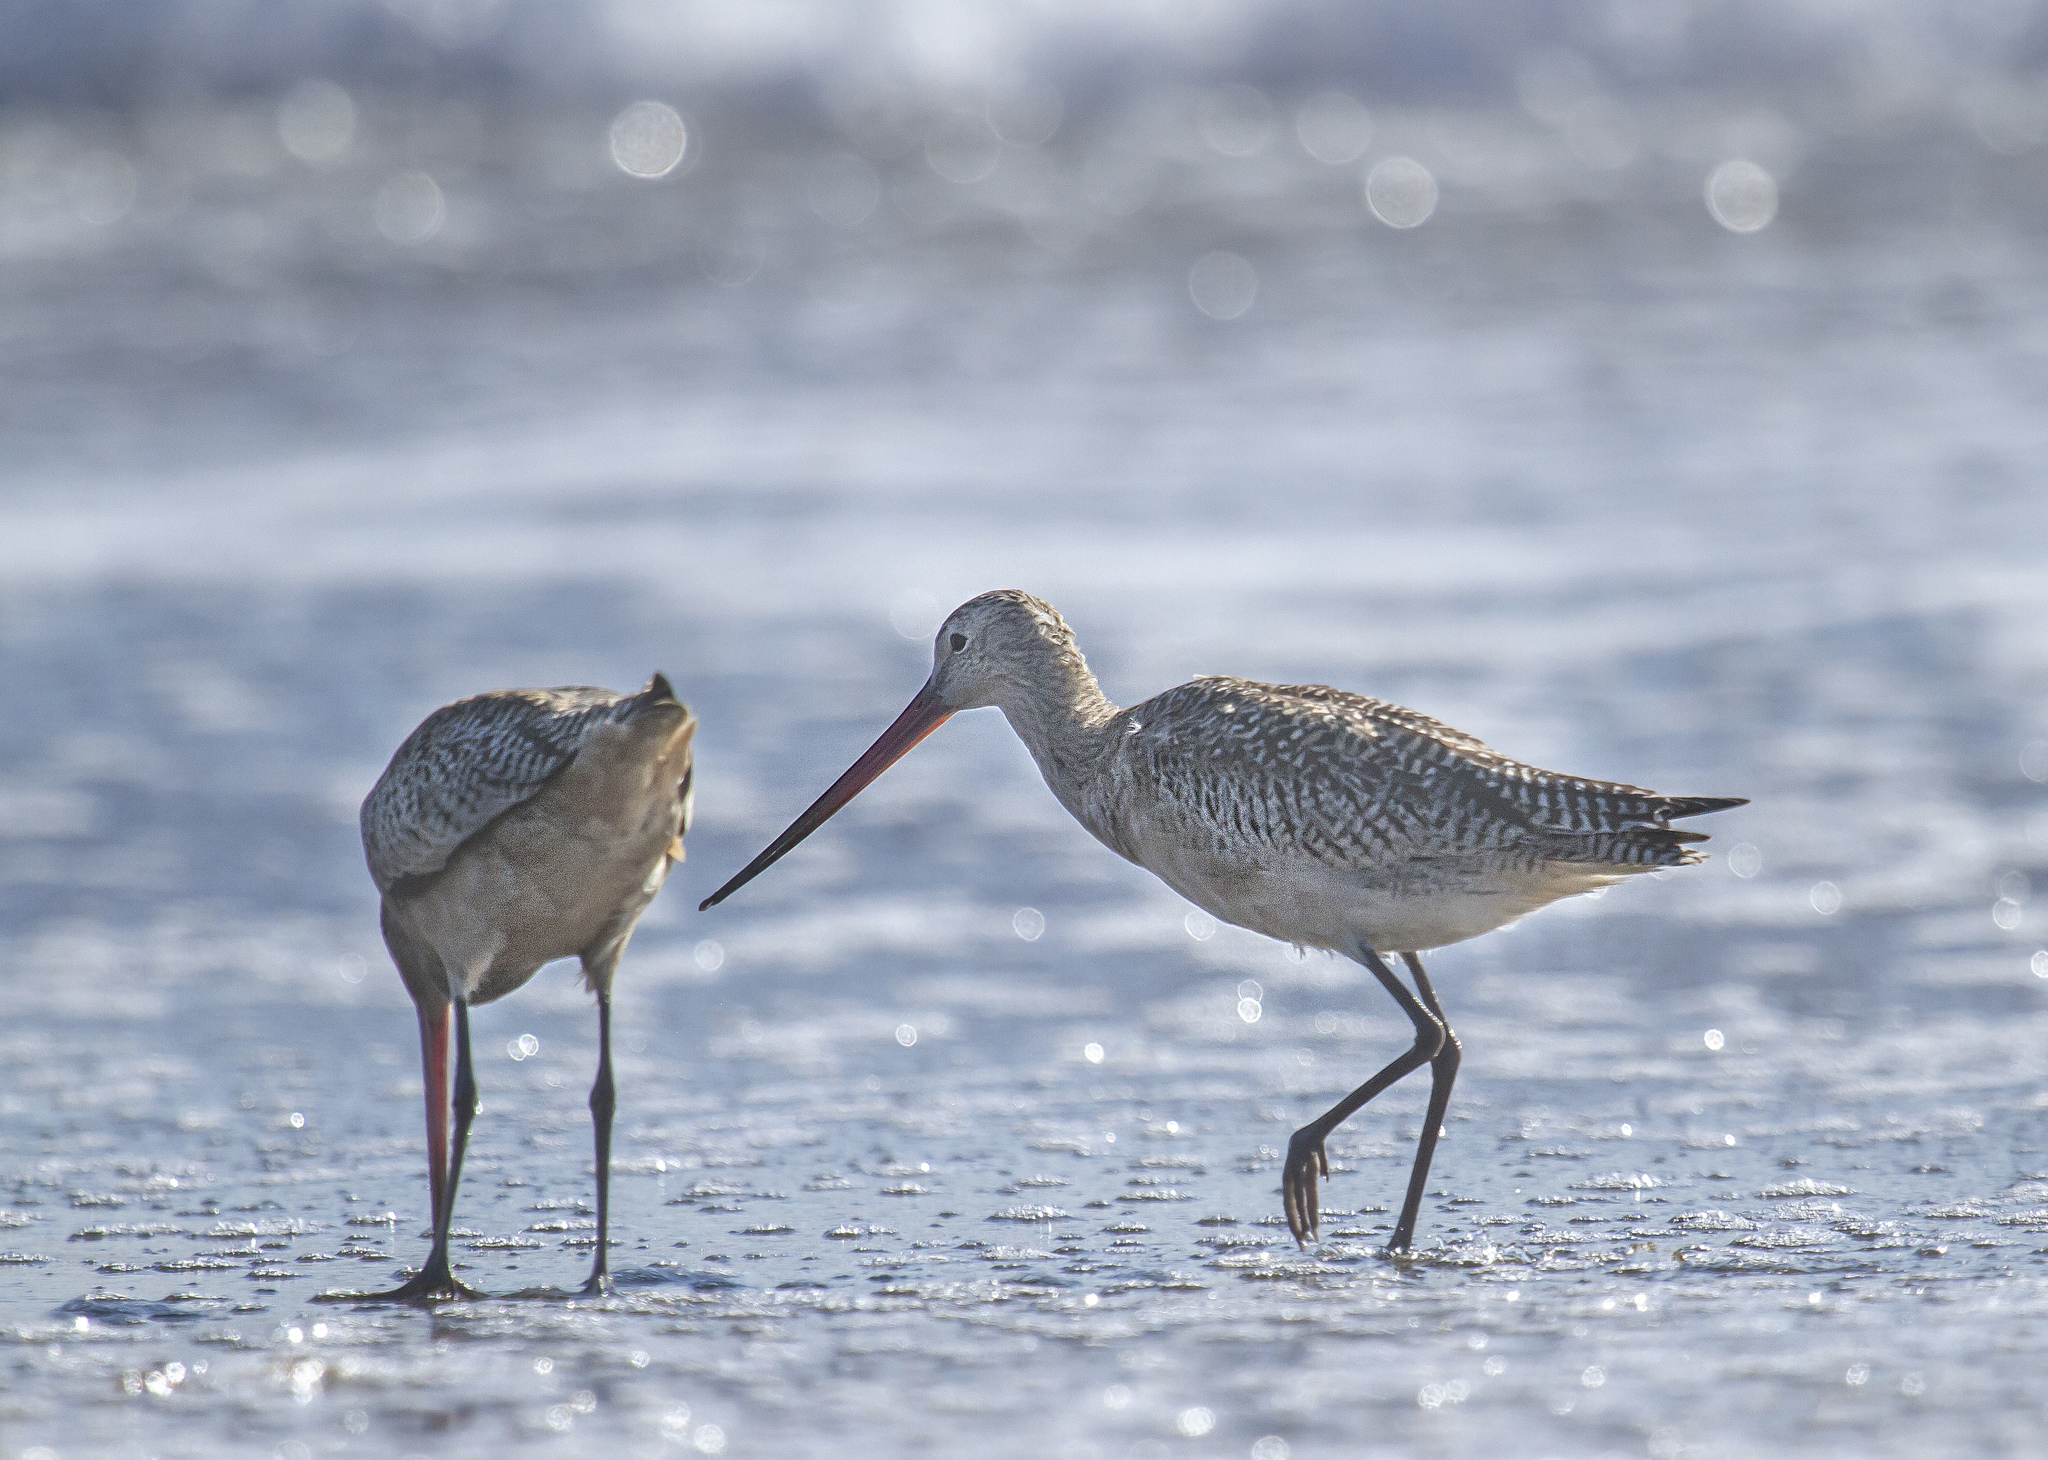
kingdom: Animalia
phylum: Chordata
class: Aves
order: Charadriiformes
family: Scolopacidae
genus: Limosa
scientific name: Limosa fedoa
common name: Marbled godwit
